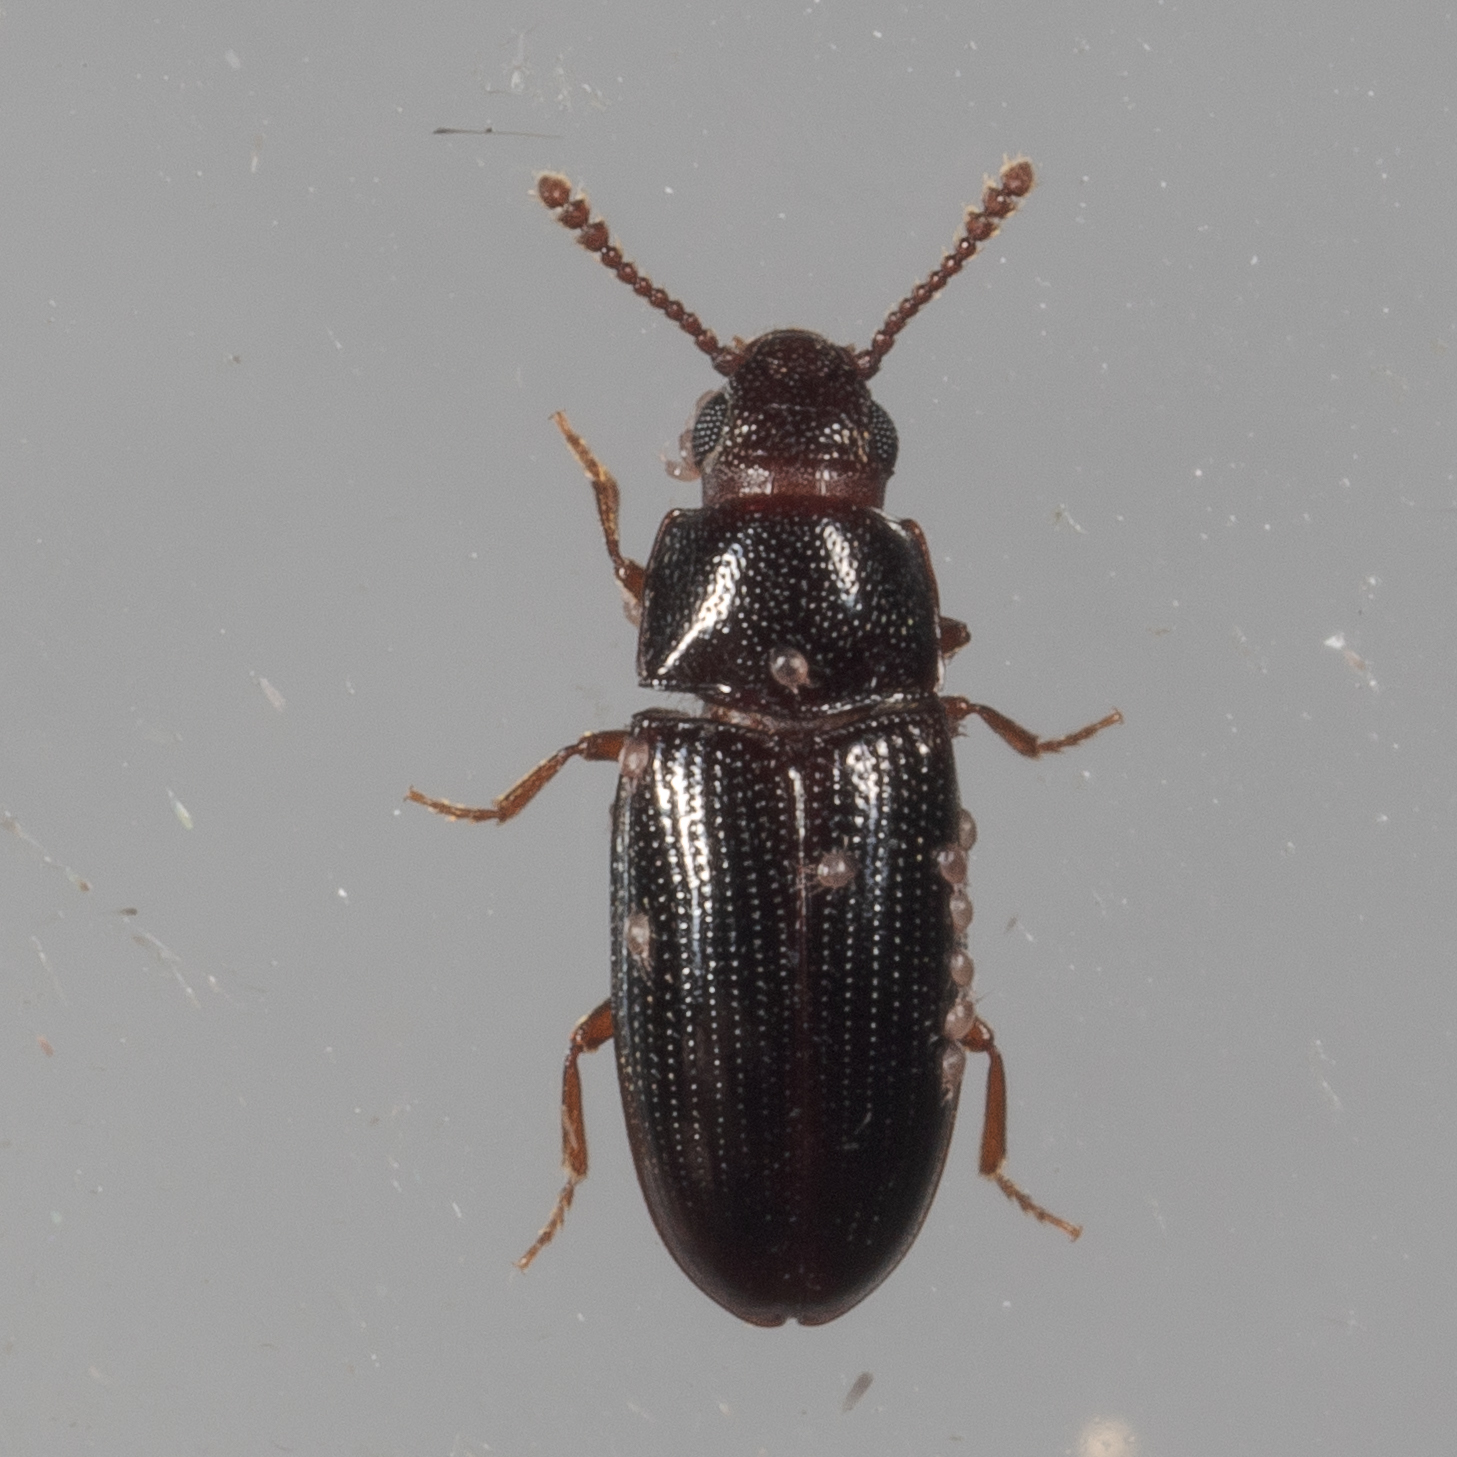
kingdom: Animalia
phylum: Arthropoda
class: Insecta
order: Coleoptera
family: Erotylidae
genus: Pharaxonotha
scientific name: Pharaxonotha kirschii
